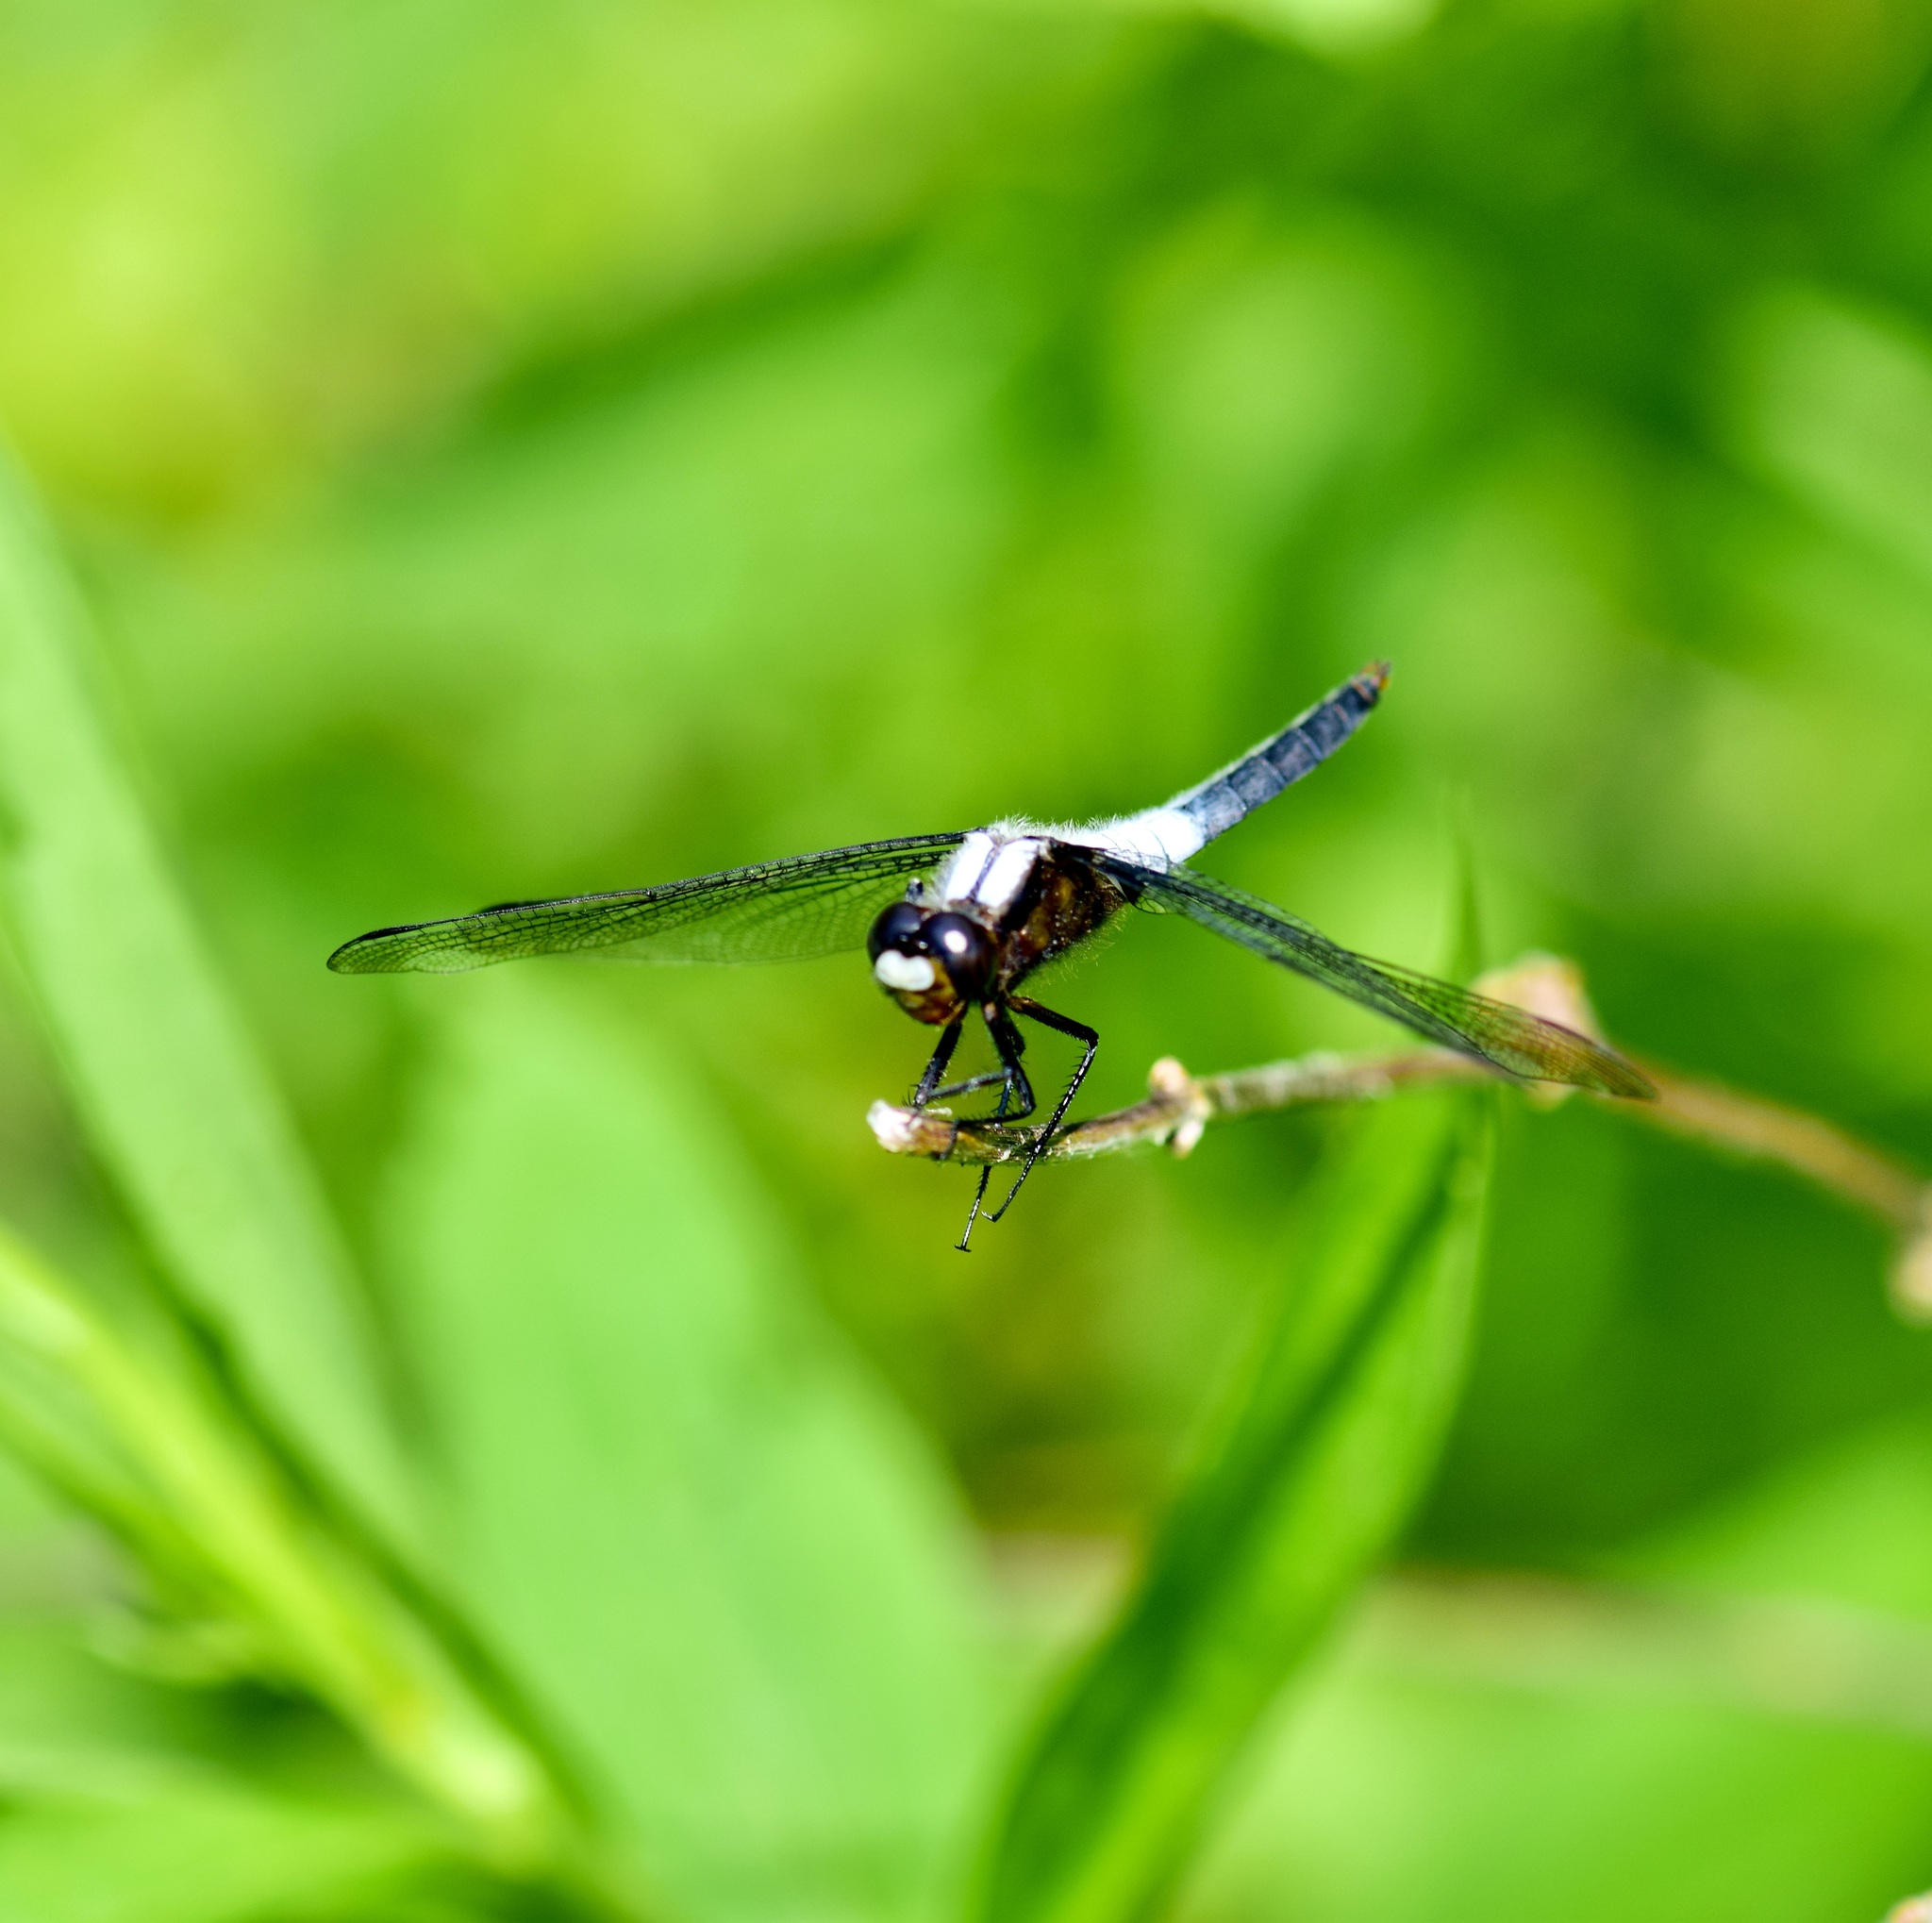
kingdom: Animalia
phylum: Arthropoda
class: Insecta
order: Odonata
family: Libellulidae
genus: Ladona
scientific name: Ladona julia
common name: Chalk-fronted corporal
